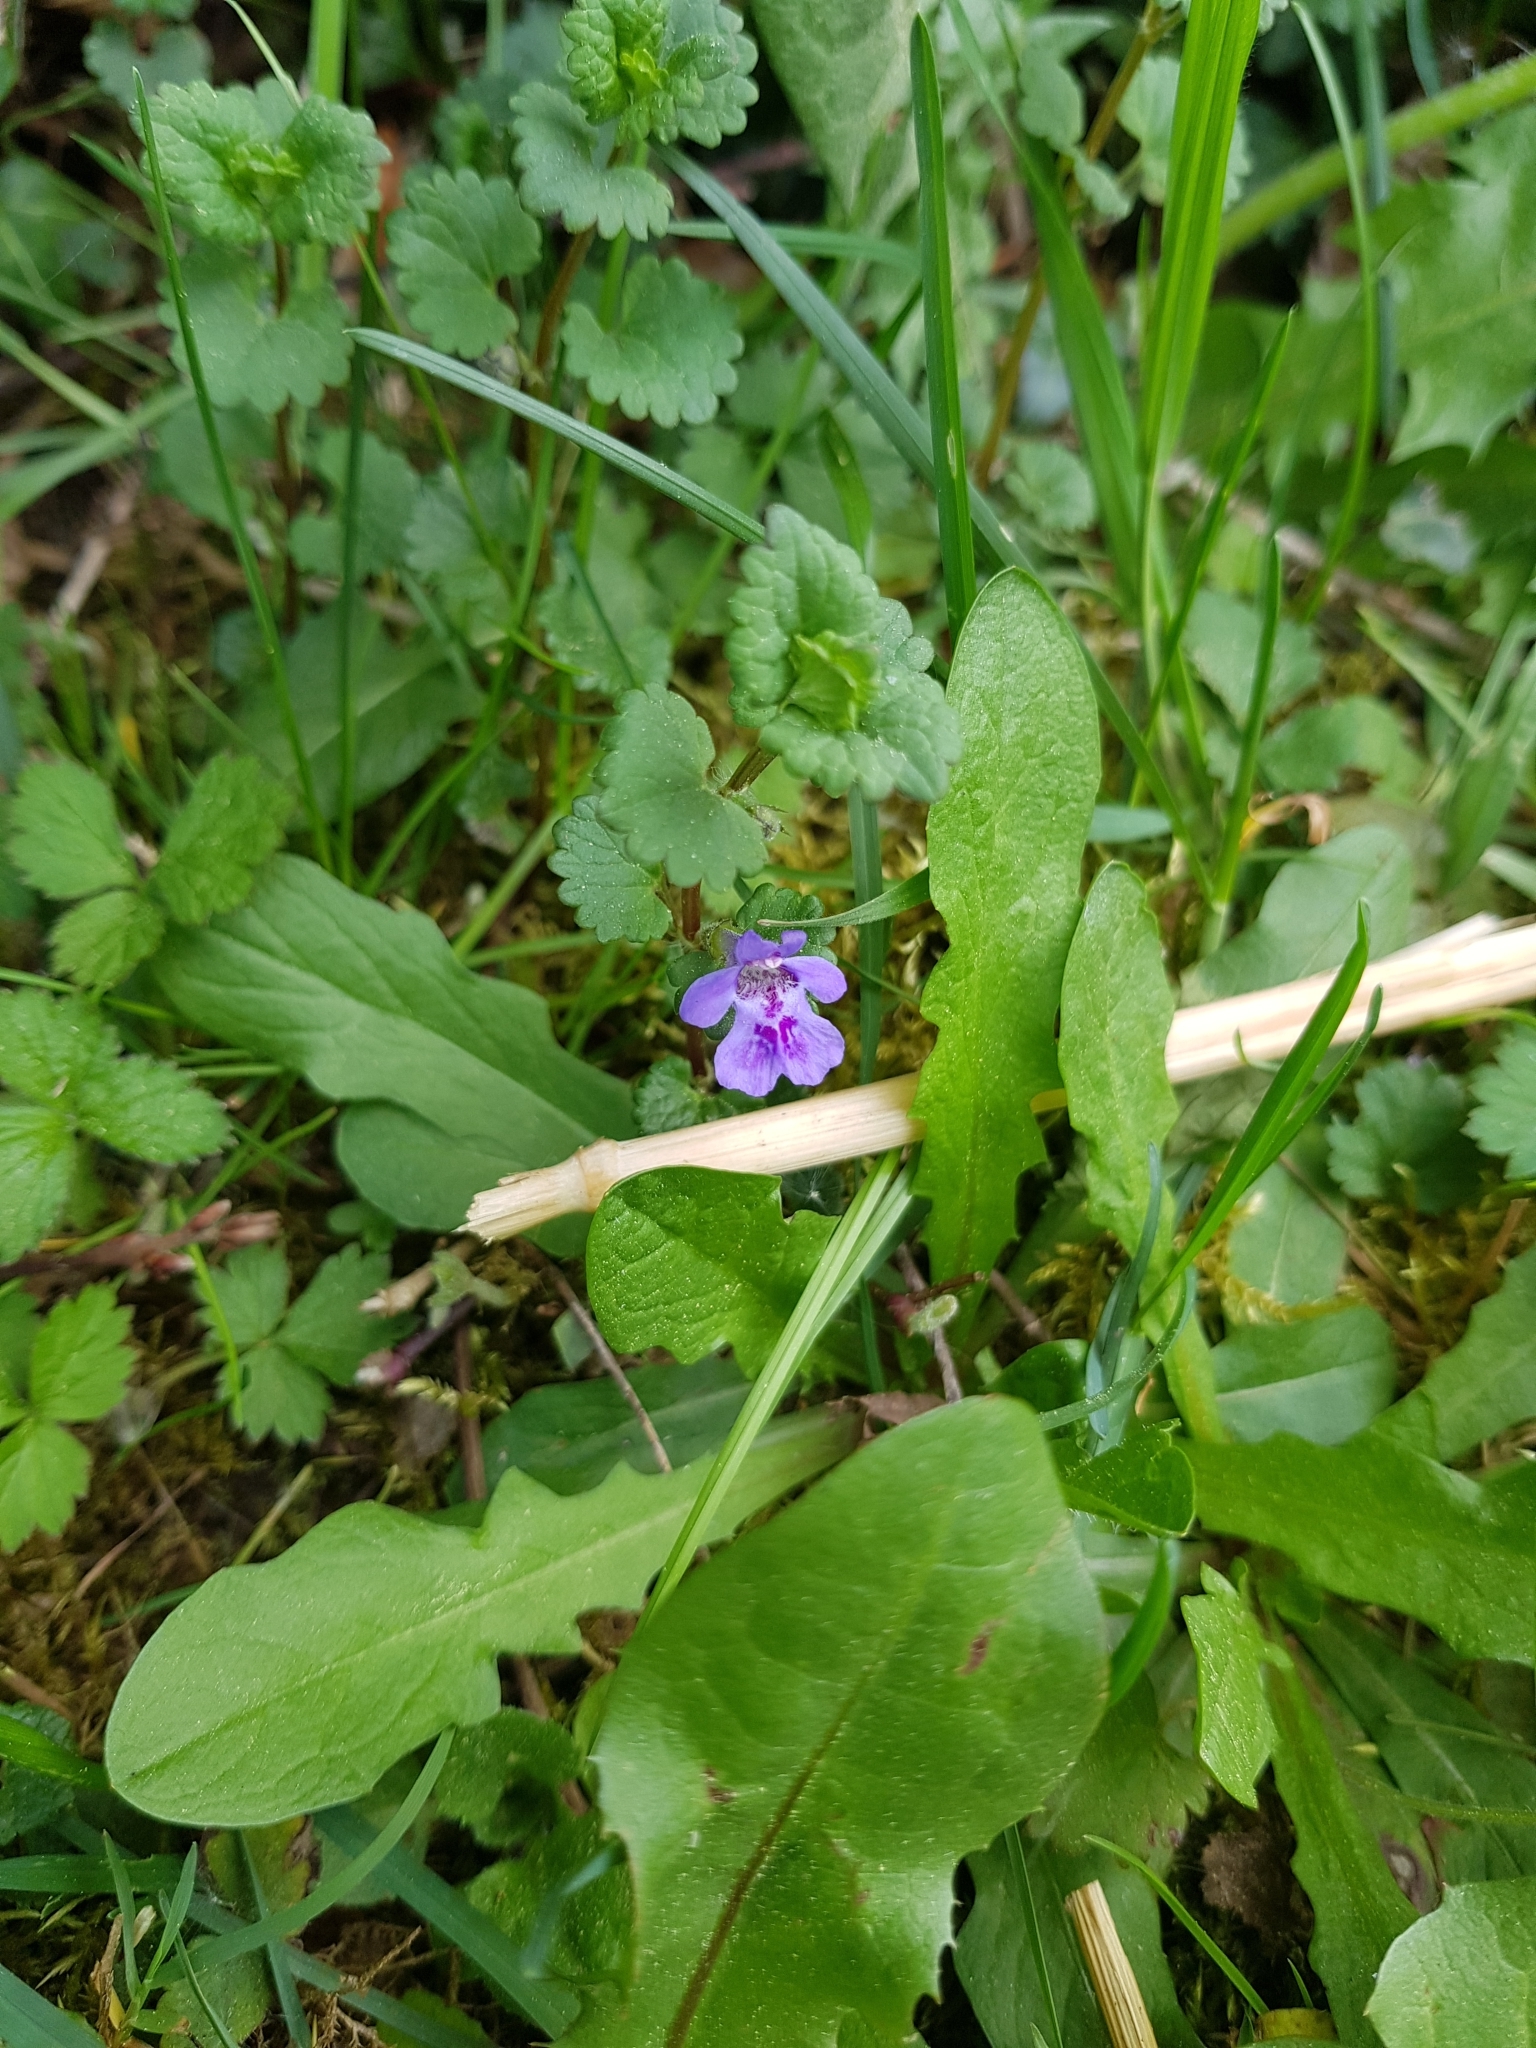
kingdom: Plantae
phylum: Tracheophyta
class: Magnoliopsida
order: Lamiales
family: Lamiaceae
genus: Glechoma
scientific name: Glechoma hederacea
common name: Ground ivy
